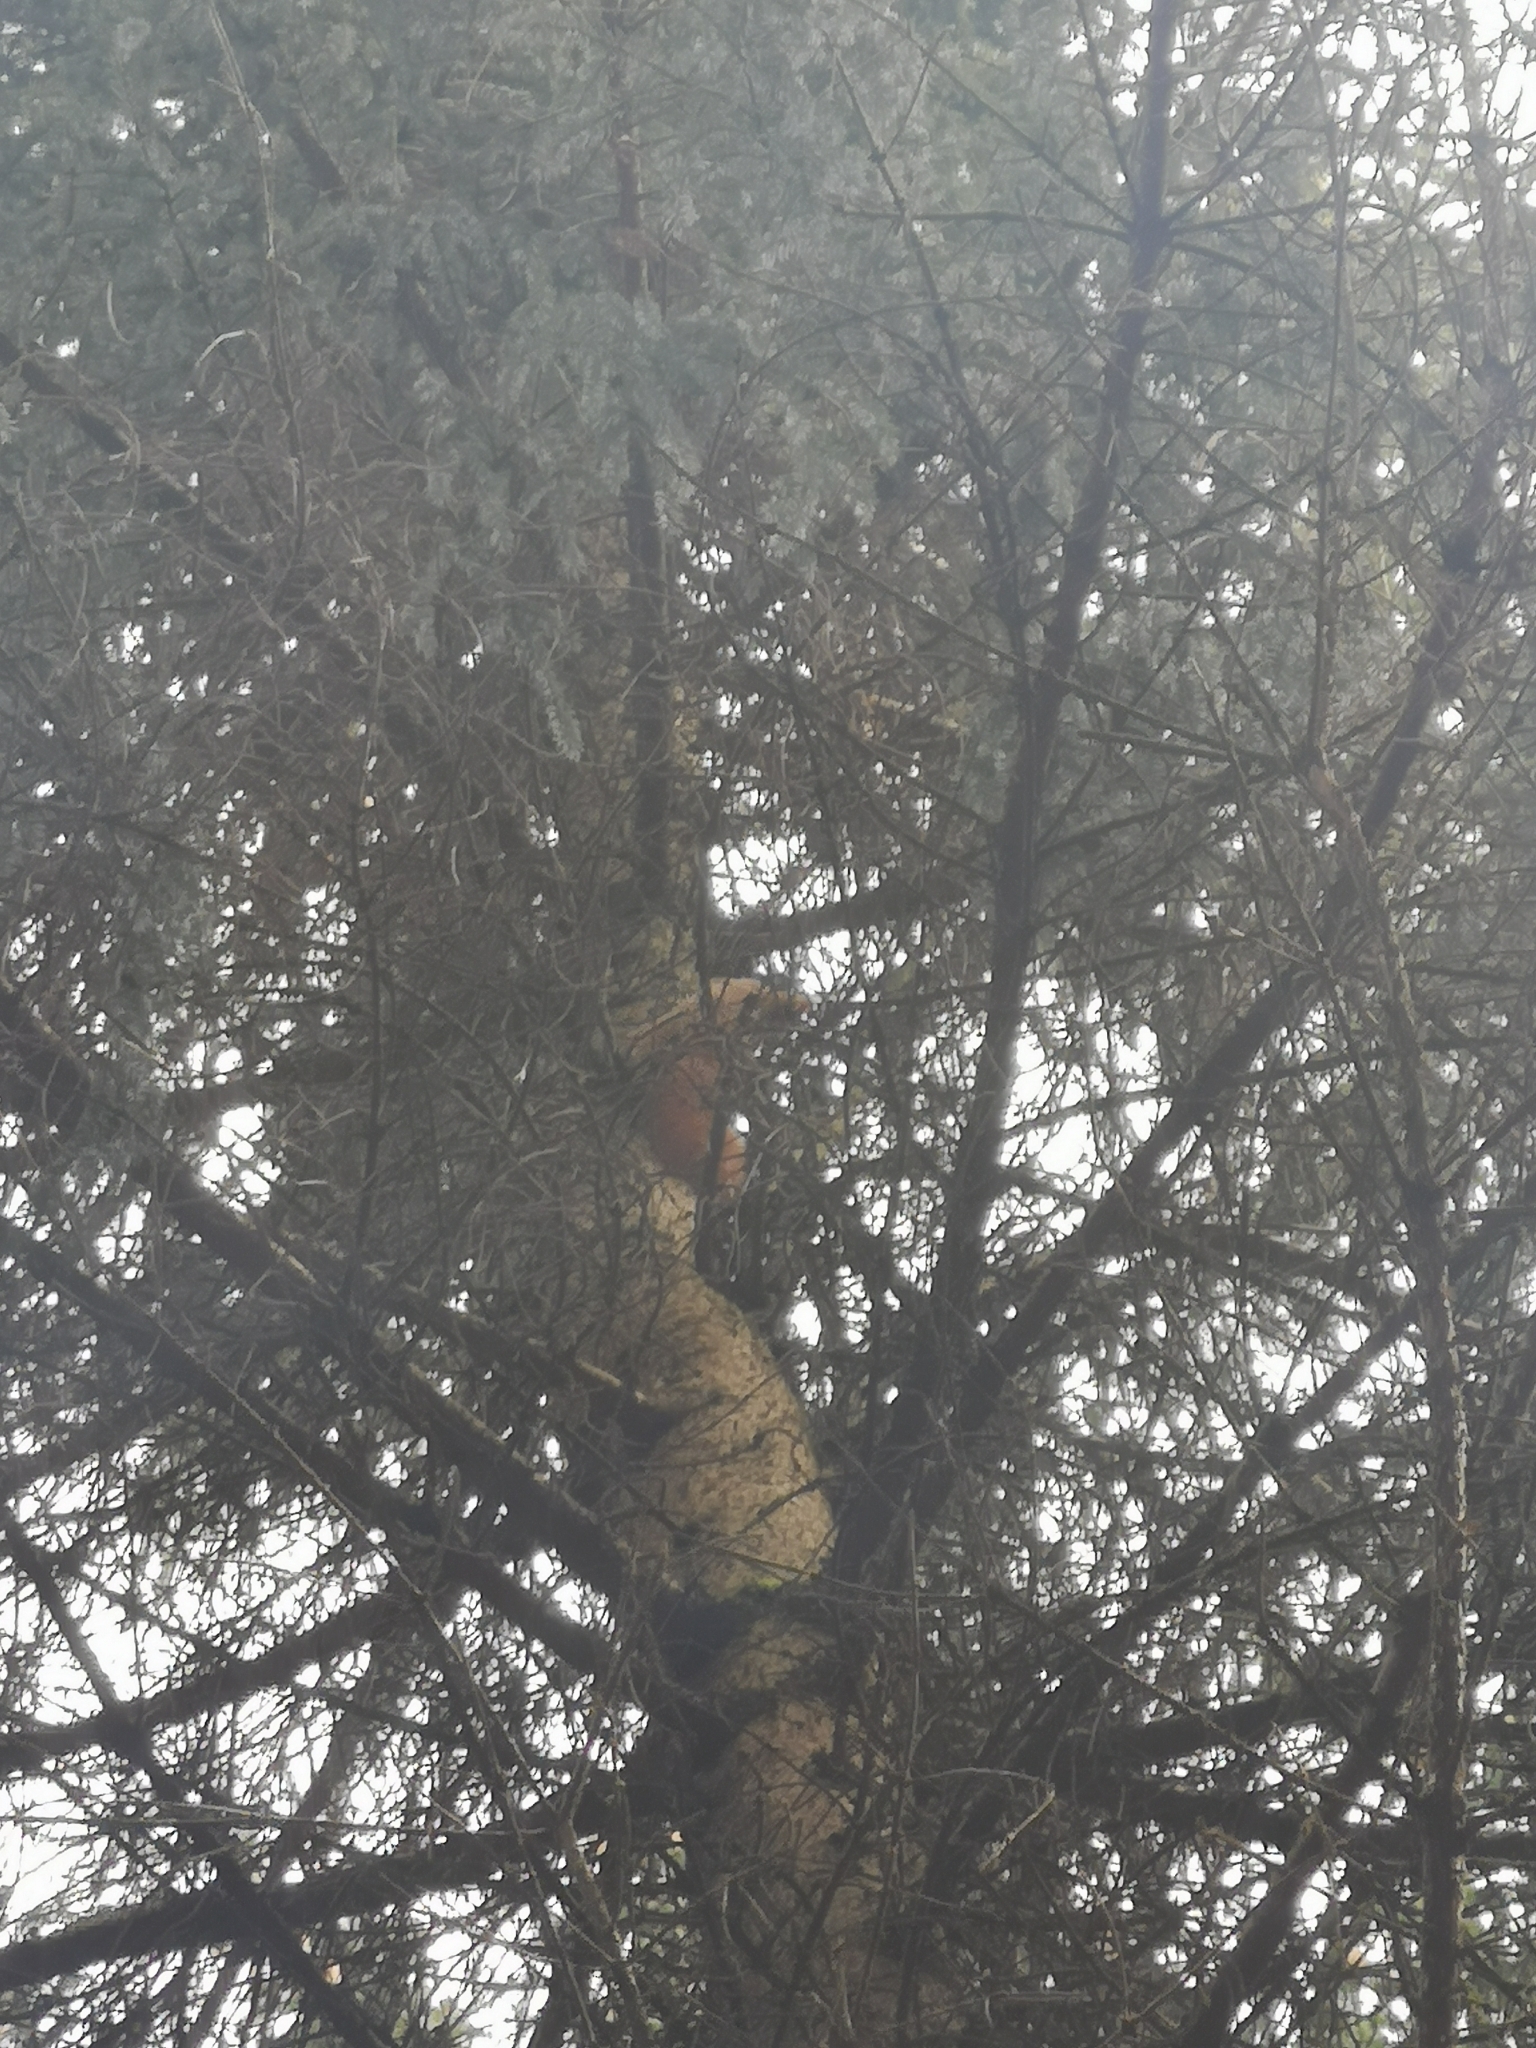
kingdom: Animalia
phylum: Chordata
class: Mammalia
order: Rodentia
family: Sciuridae
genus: Sciurus
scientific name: Sciurus vulgaris
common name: Eurasian red squirrel
